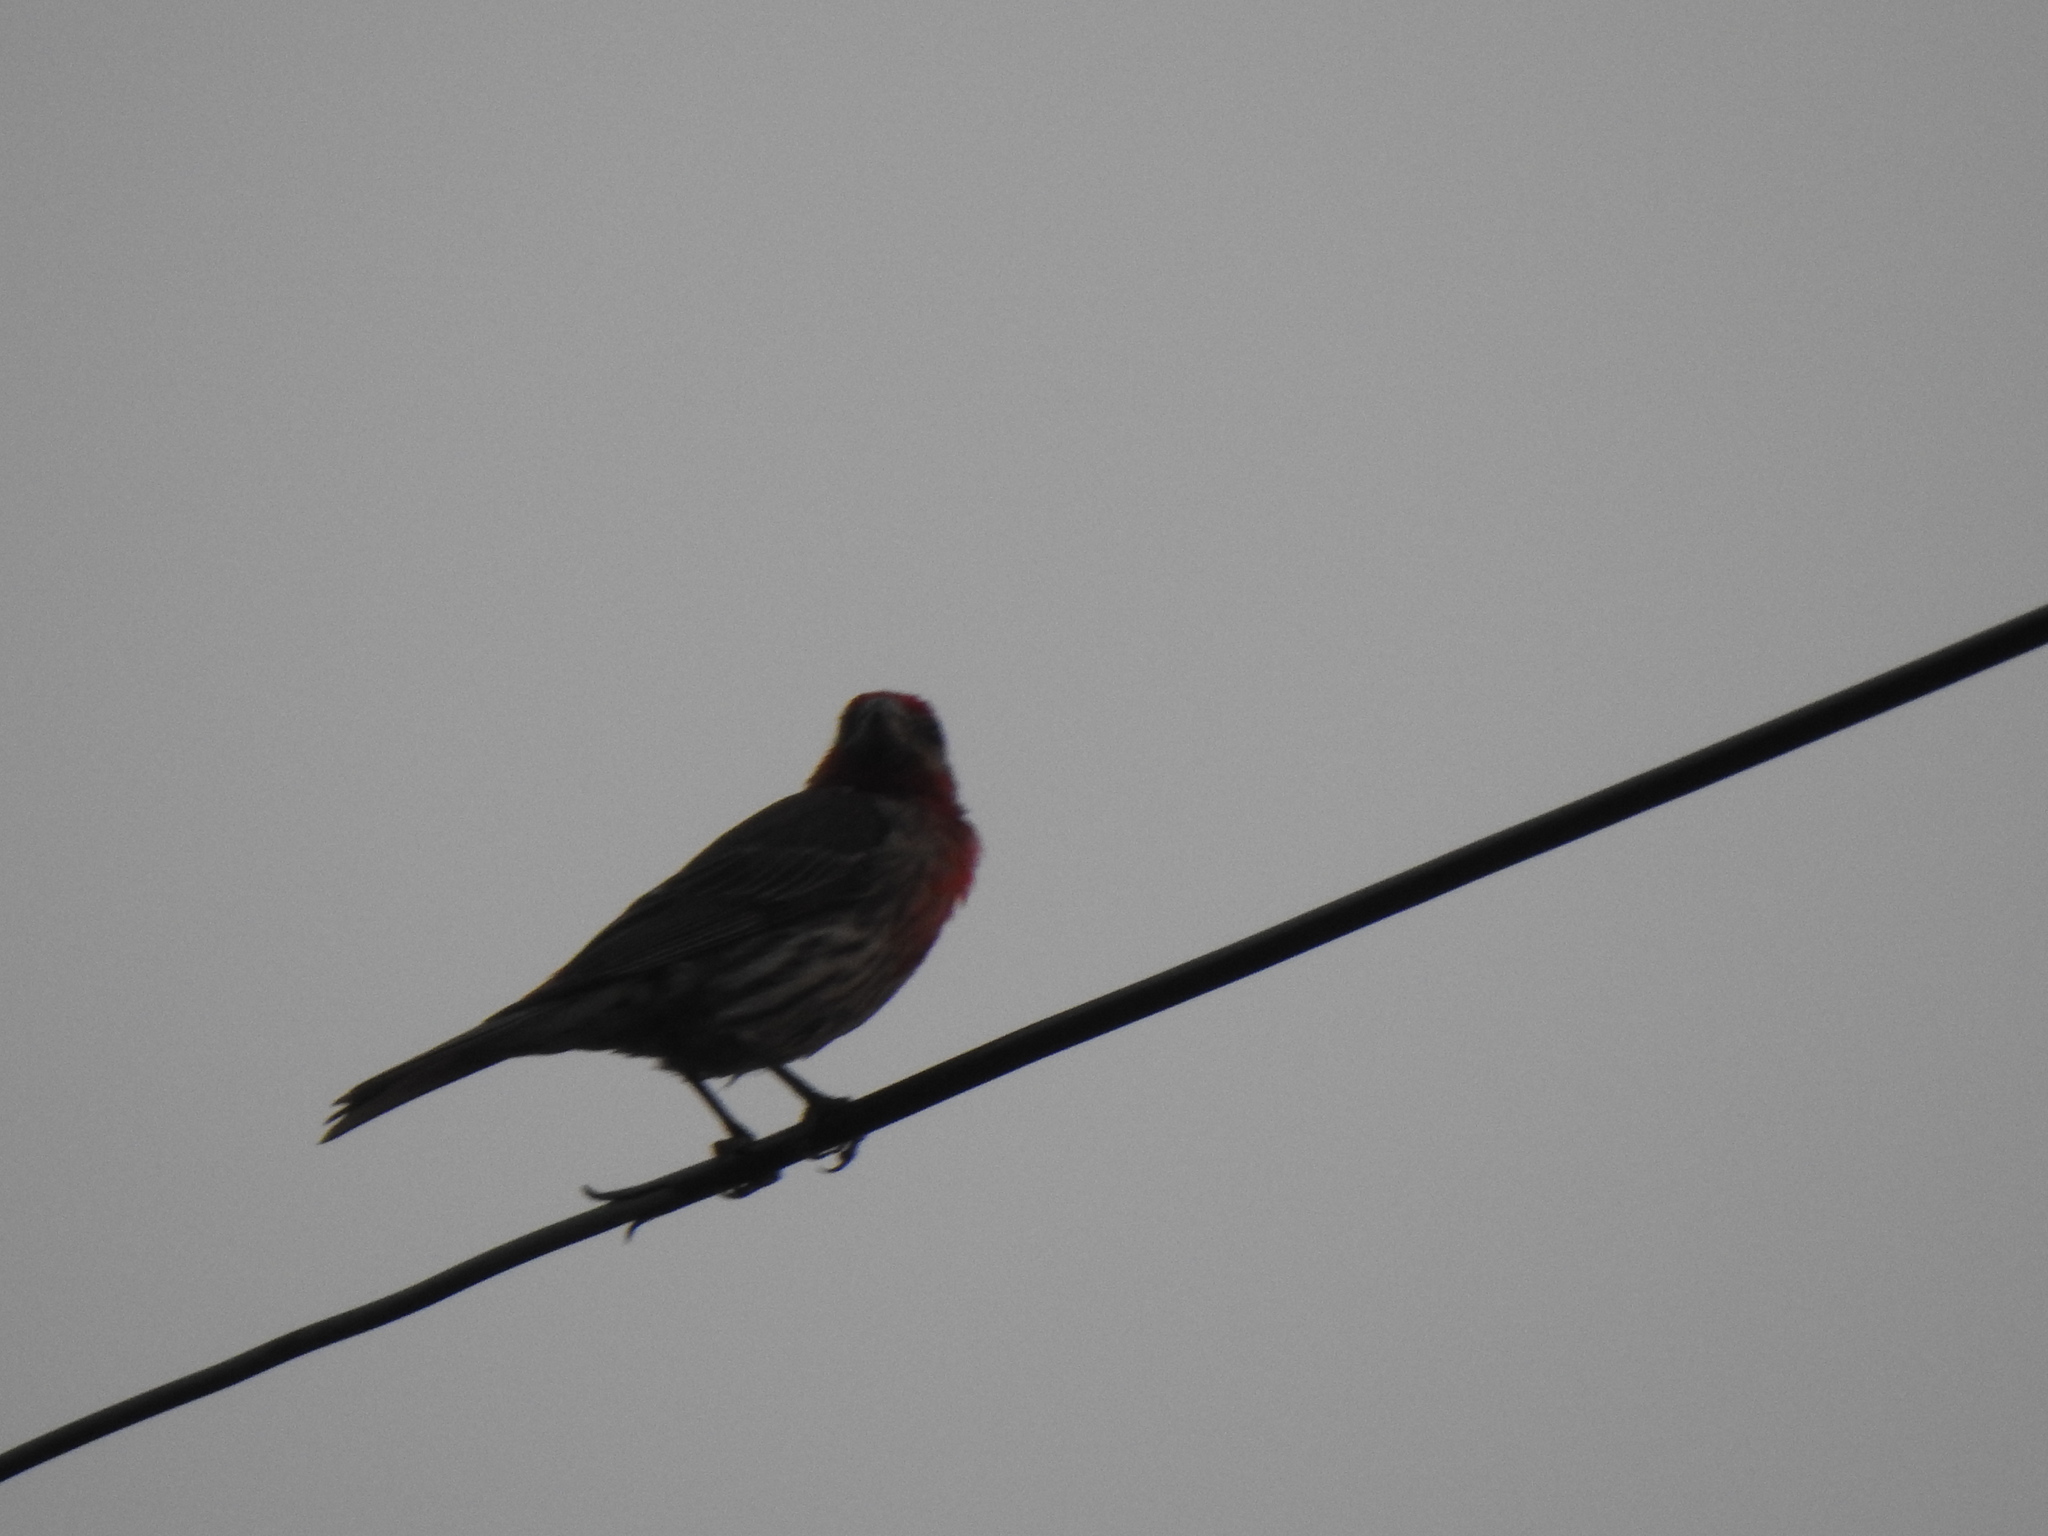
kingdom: Animalia
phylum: Chordata
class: Aves
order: Passeriformes
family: Fringillidae
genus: Haemorhous
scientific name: Haemorhous mexicanus
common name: House finch
